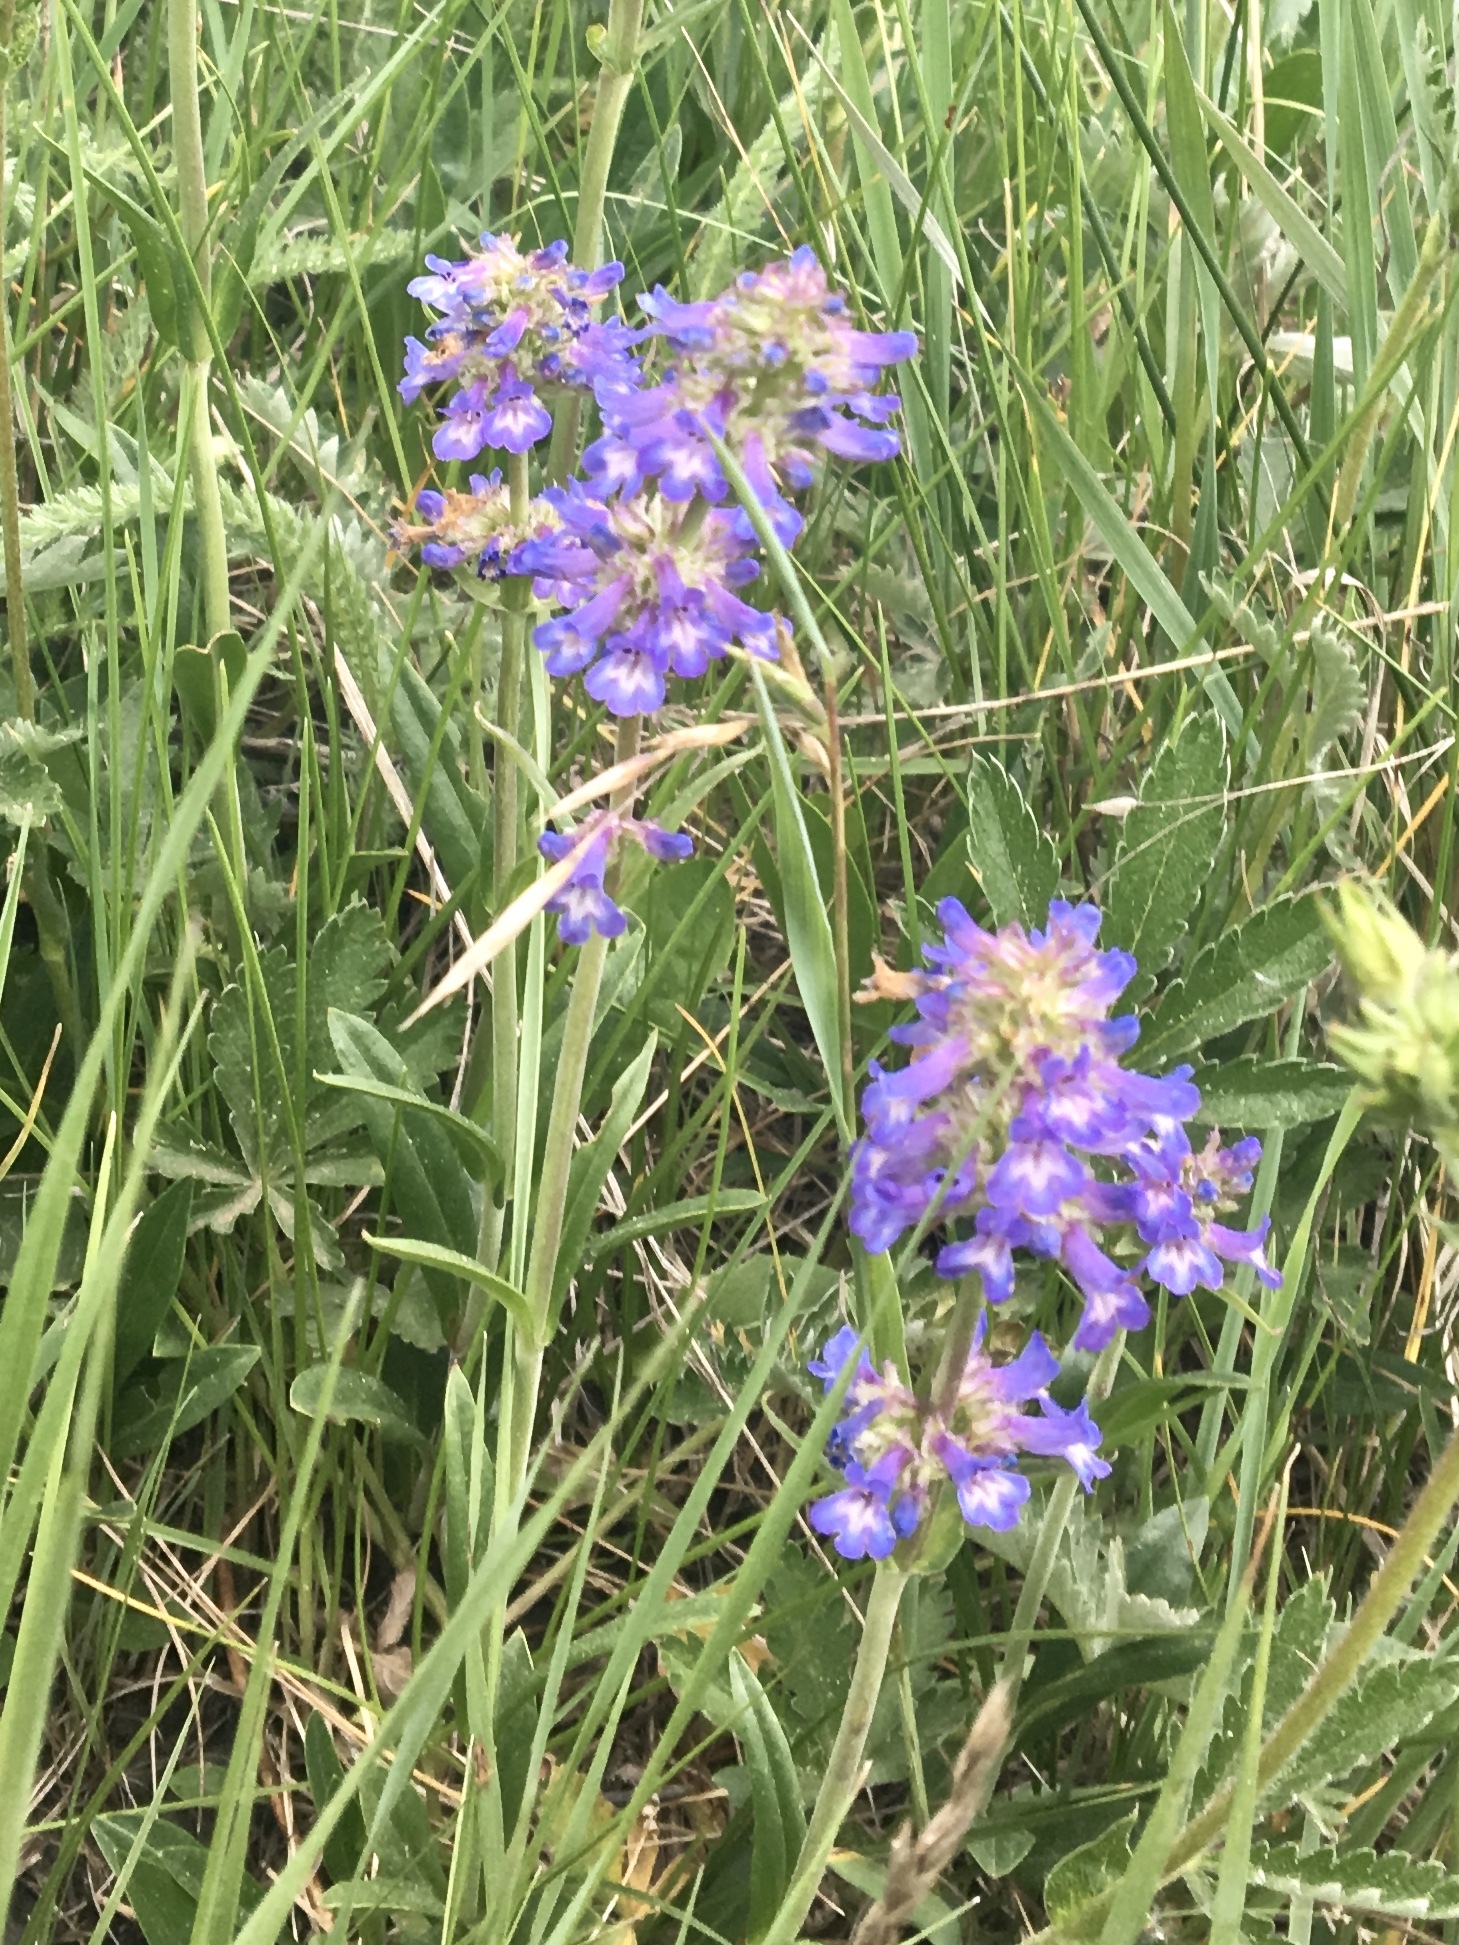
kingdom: Plantae
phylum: Tracheophyta
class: Magnoliopsida
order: Lamiales
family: Plantaginaceae
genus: Penstemon
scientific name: Penstemon procerus
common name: Small-flower penstemon
